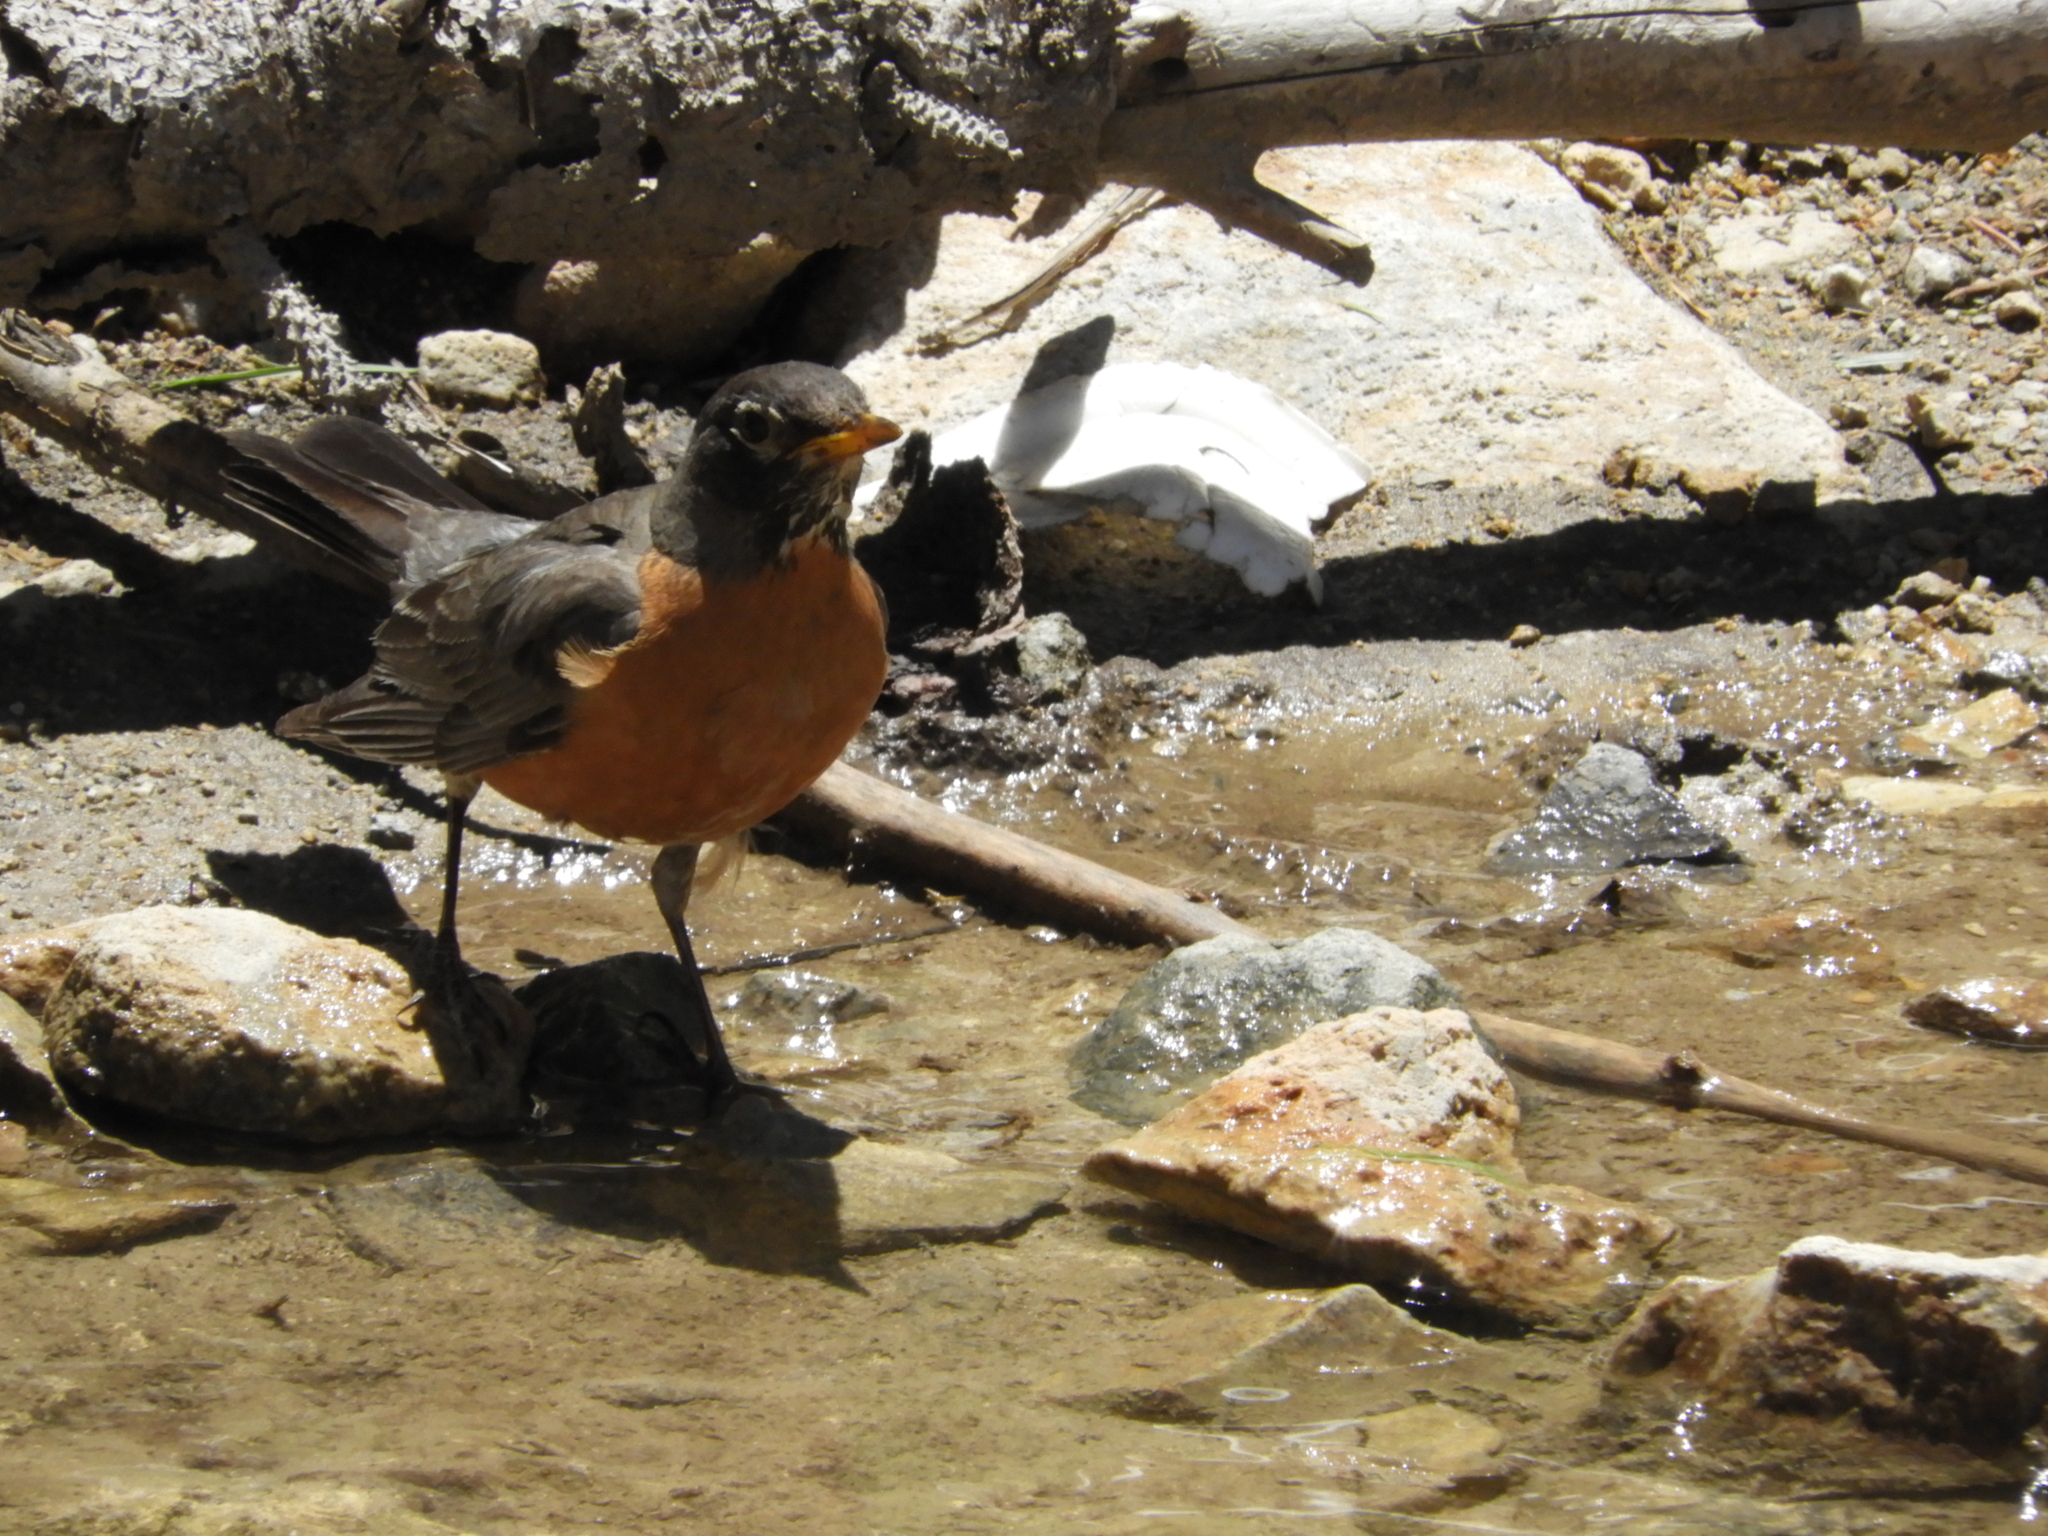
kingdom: Animalia
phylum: Chordata
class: Aves
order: Passeriformes
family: Turdidae
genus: Turdus
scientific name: Turdus migratorius
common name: American robin
